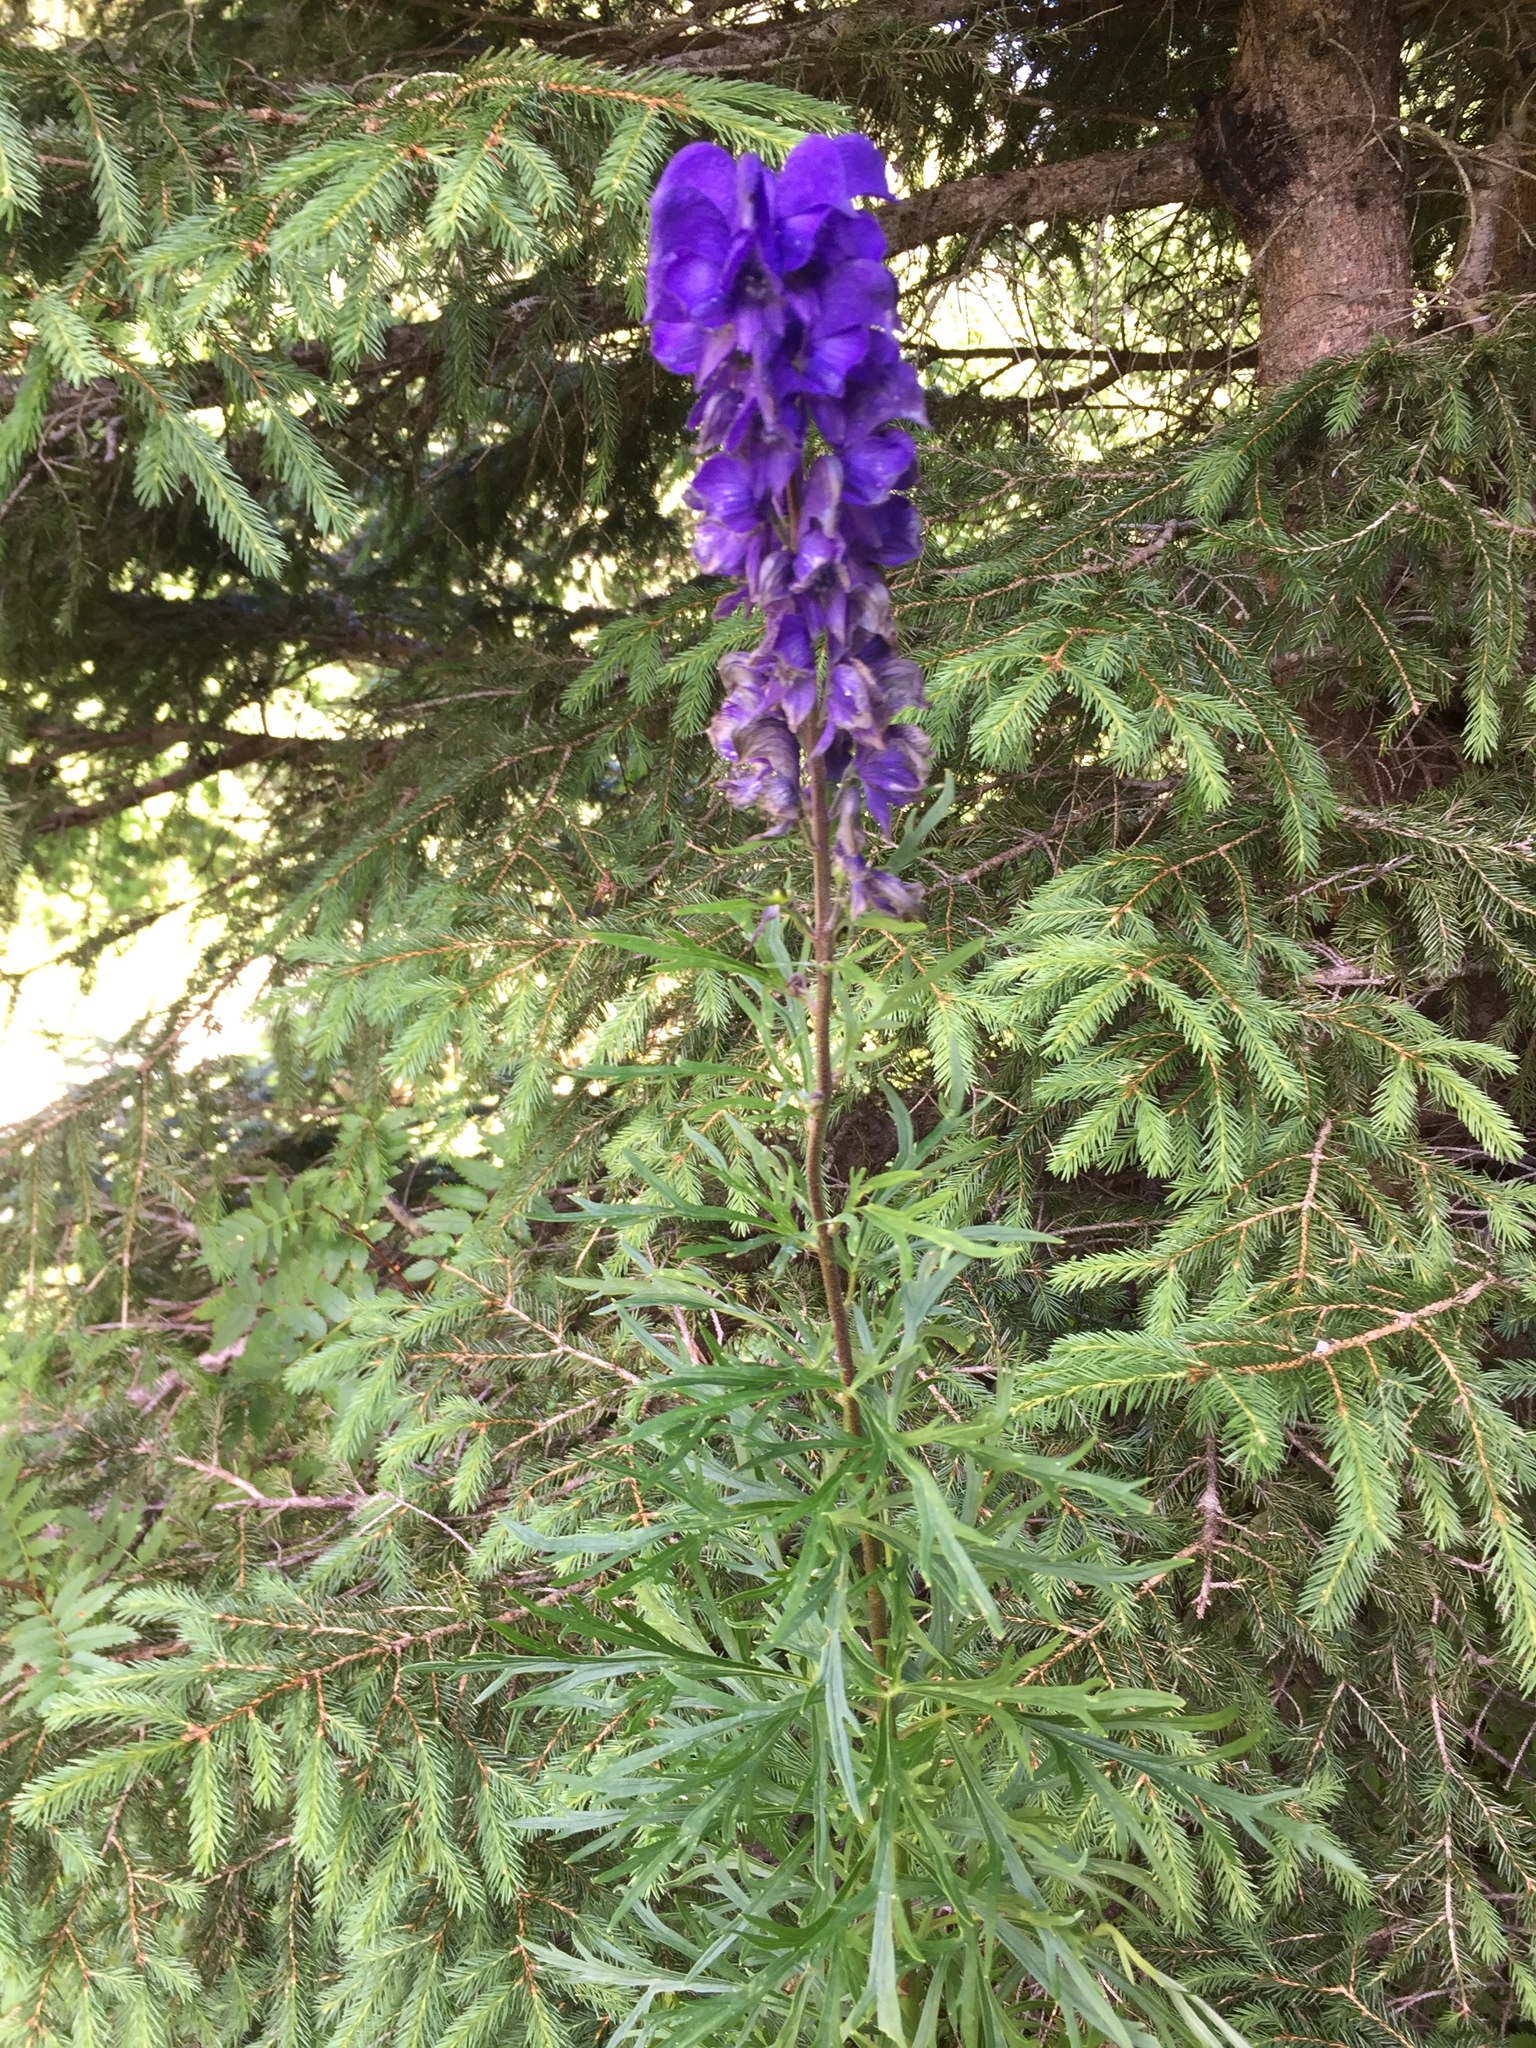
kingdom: Plantae
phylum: Tracheophyta
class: Magnoliopsida
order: Ranunculales
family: Ranunculaceae
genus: Aconitum
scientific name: Aconitum napellus
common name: Garden monkshood
